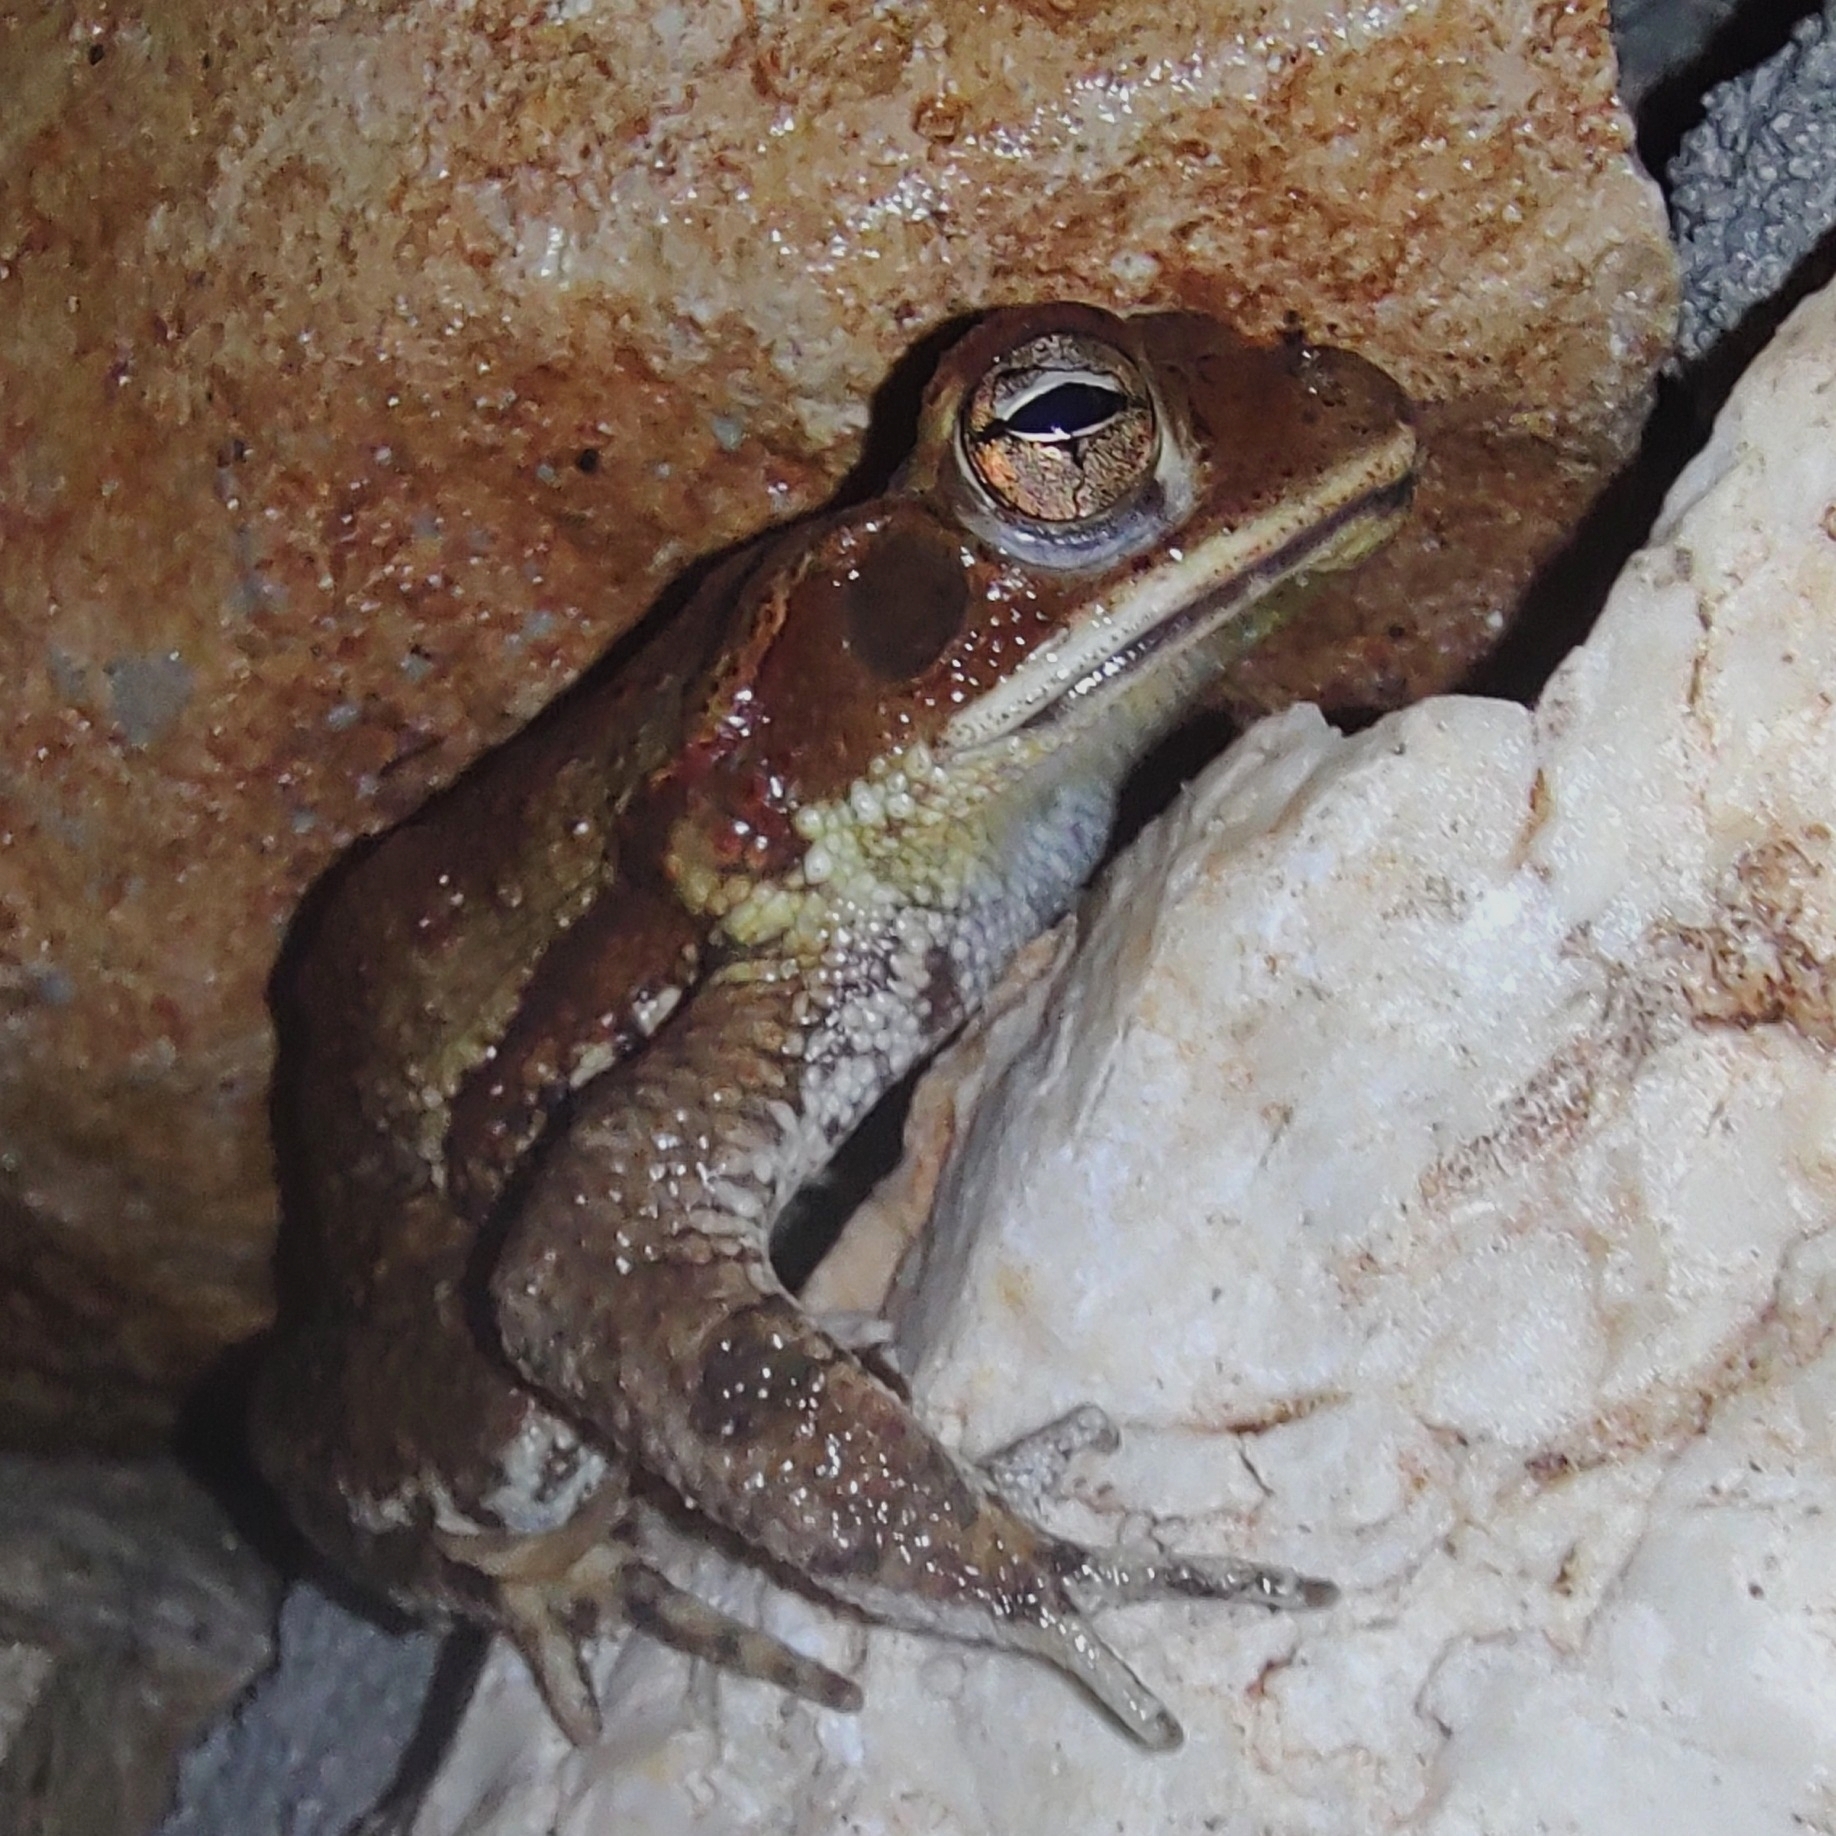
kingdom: Animalia
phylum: Chordata
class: Amphibia
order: Anura
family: Bufonidae
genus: Incilius
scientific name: Incilius valliceps
